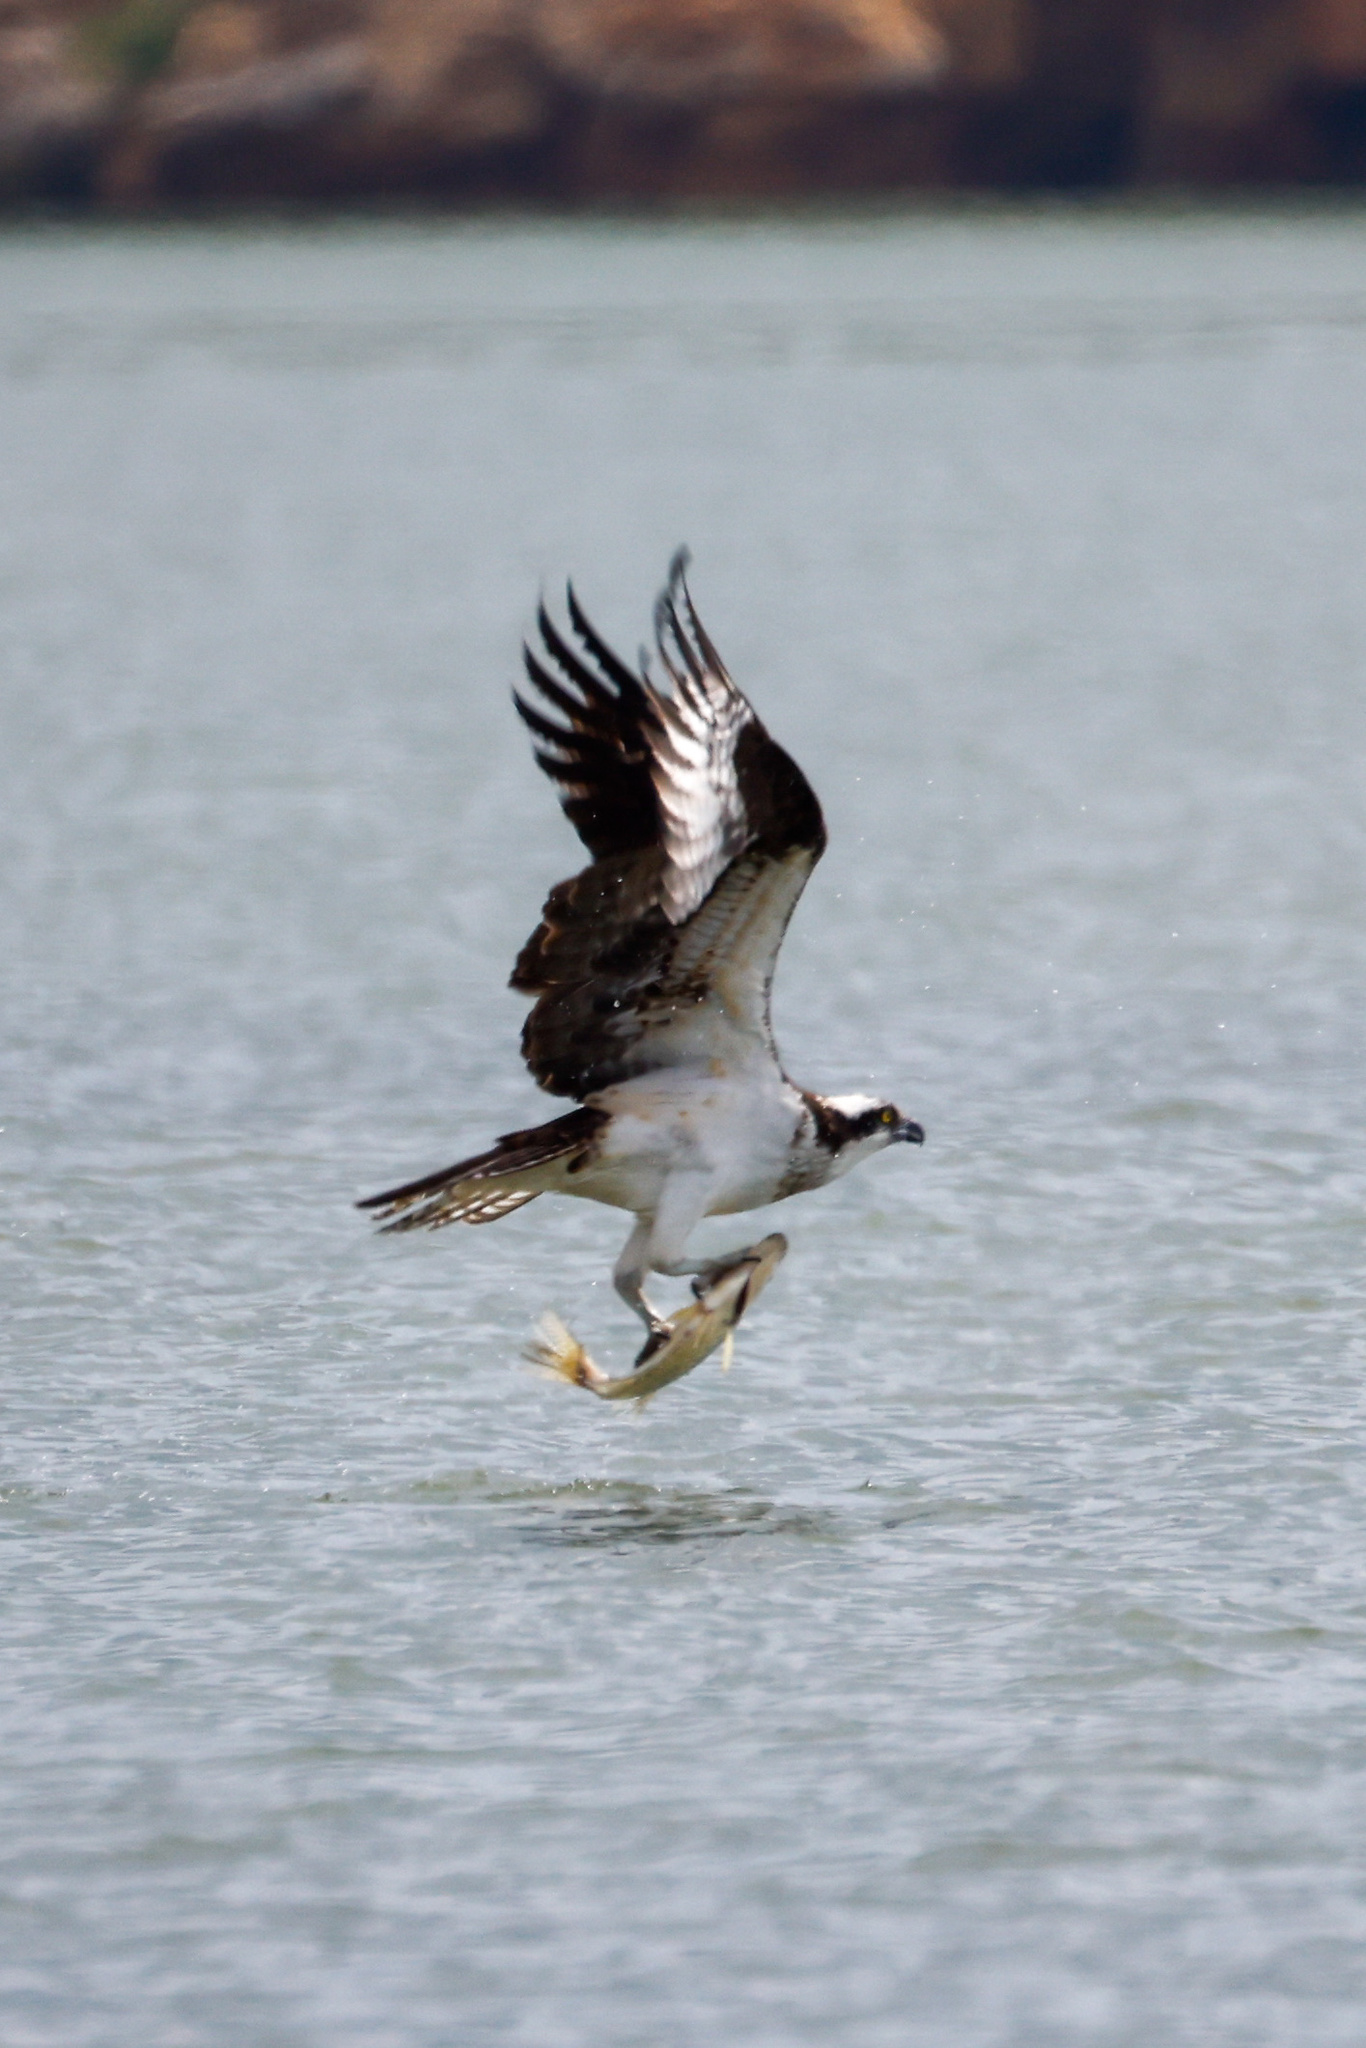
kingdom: Animalia
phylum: Chordata
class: Aves
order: Accipitriformes
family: Pandionidae
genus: Pandion
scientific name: Pandion haliaetus
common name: Osprey
